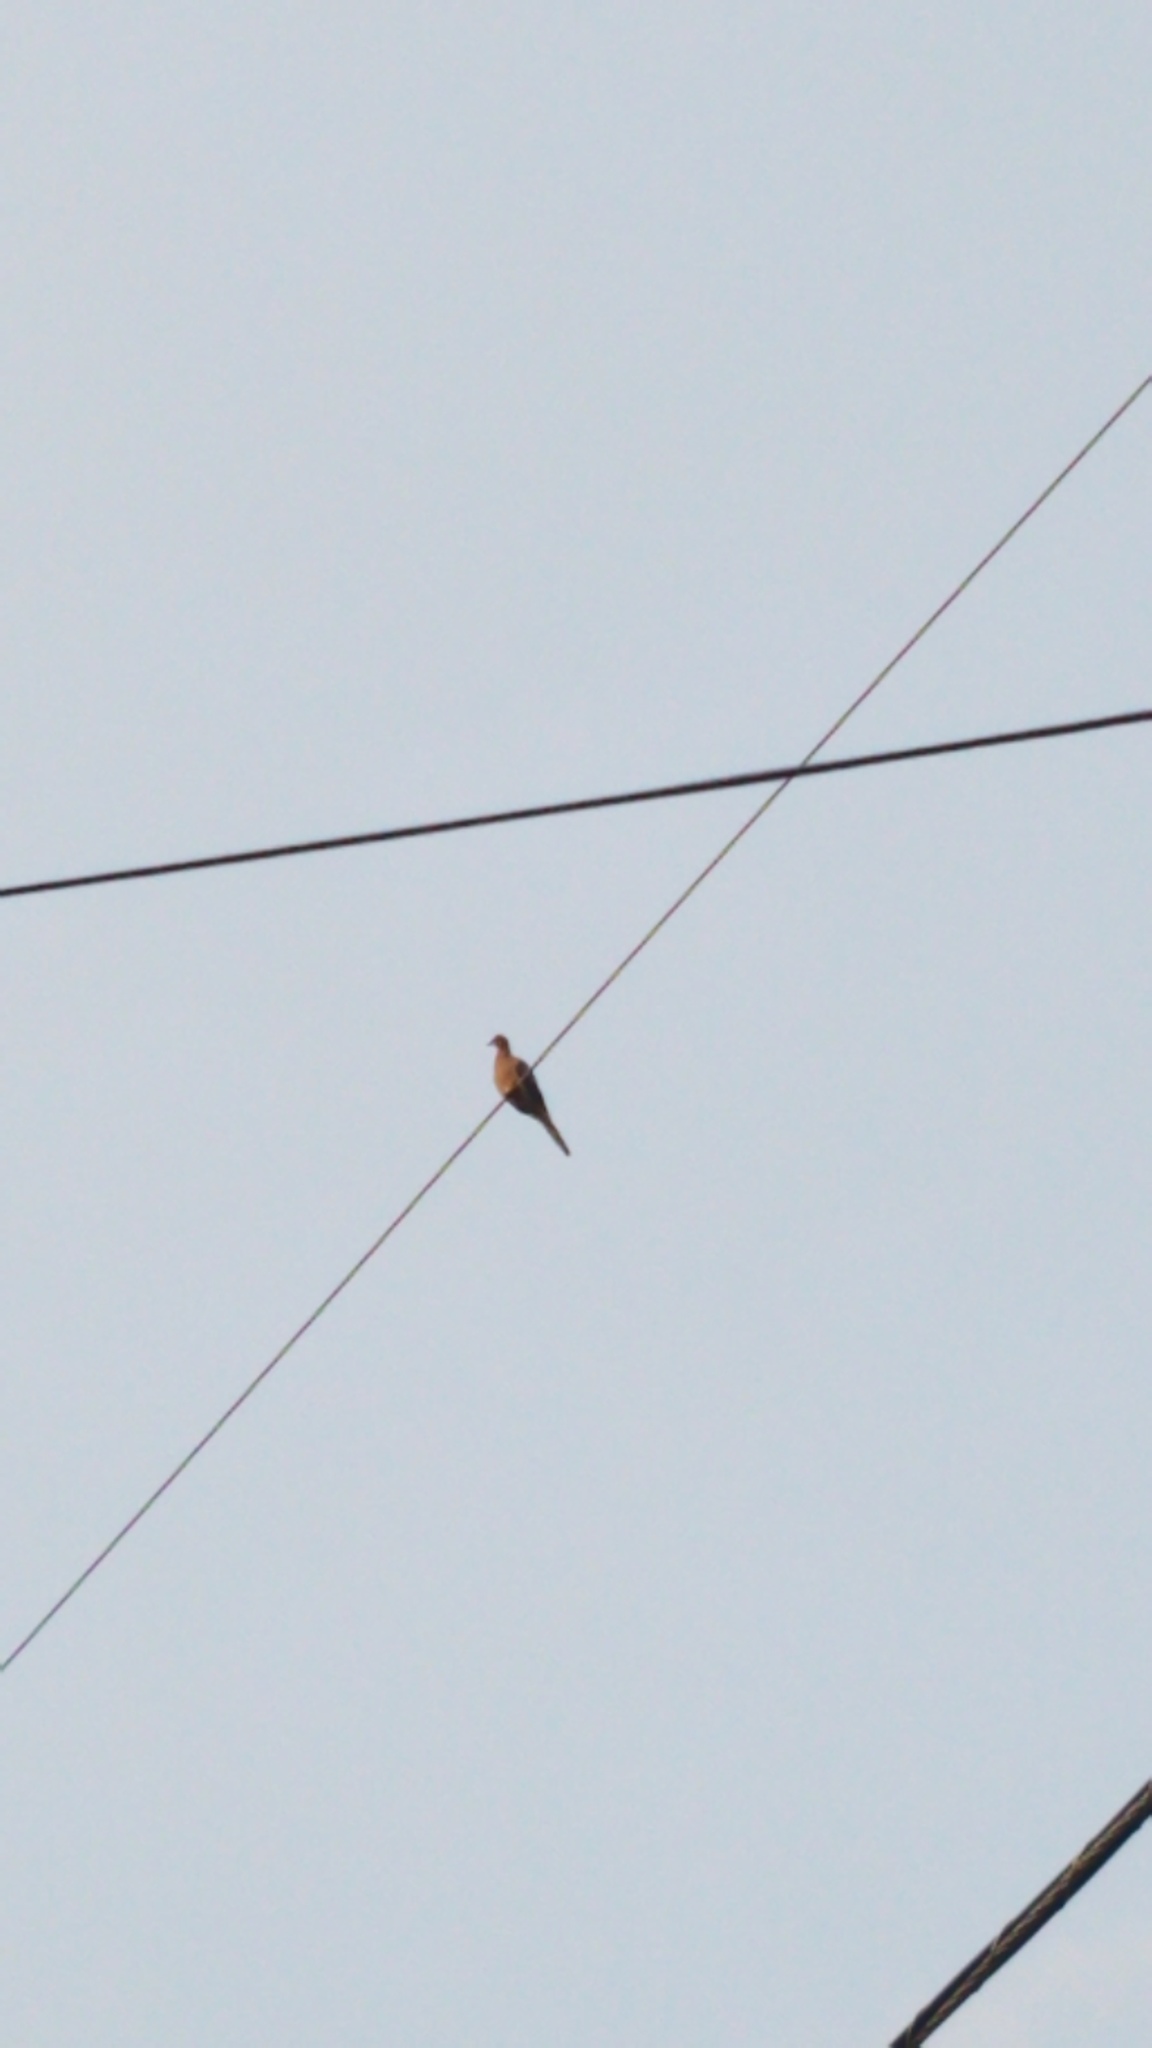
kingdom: Animalia
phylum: Chordata
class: Aves
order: Columbiformes
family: Columbidae
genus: Zenaida
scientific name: Zenaida macroura
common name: Mourning dove
